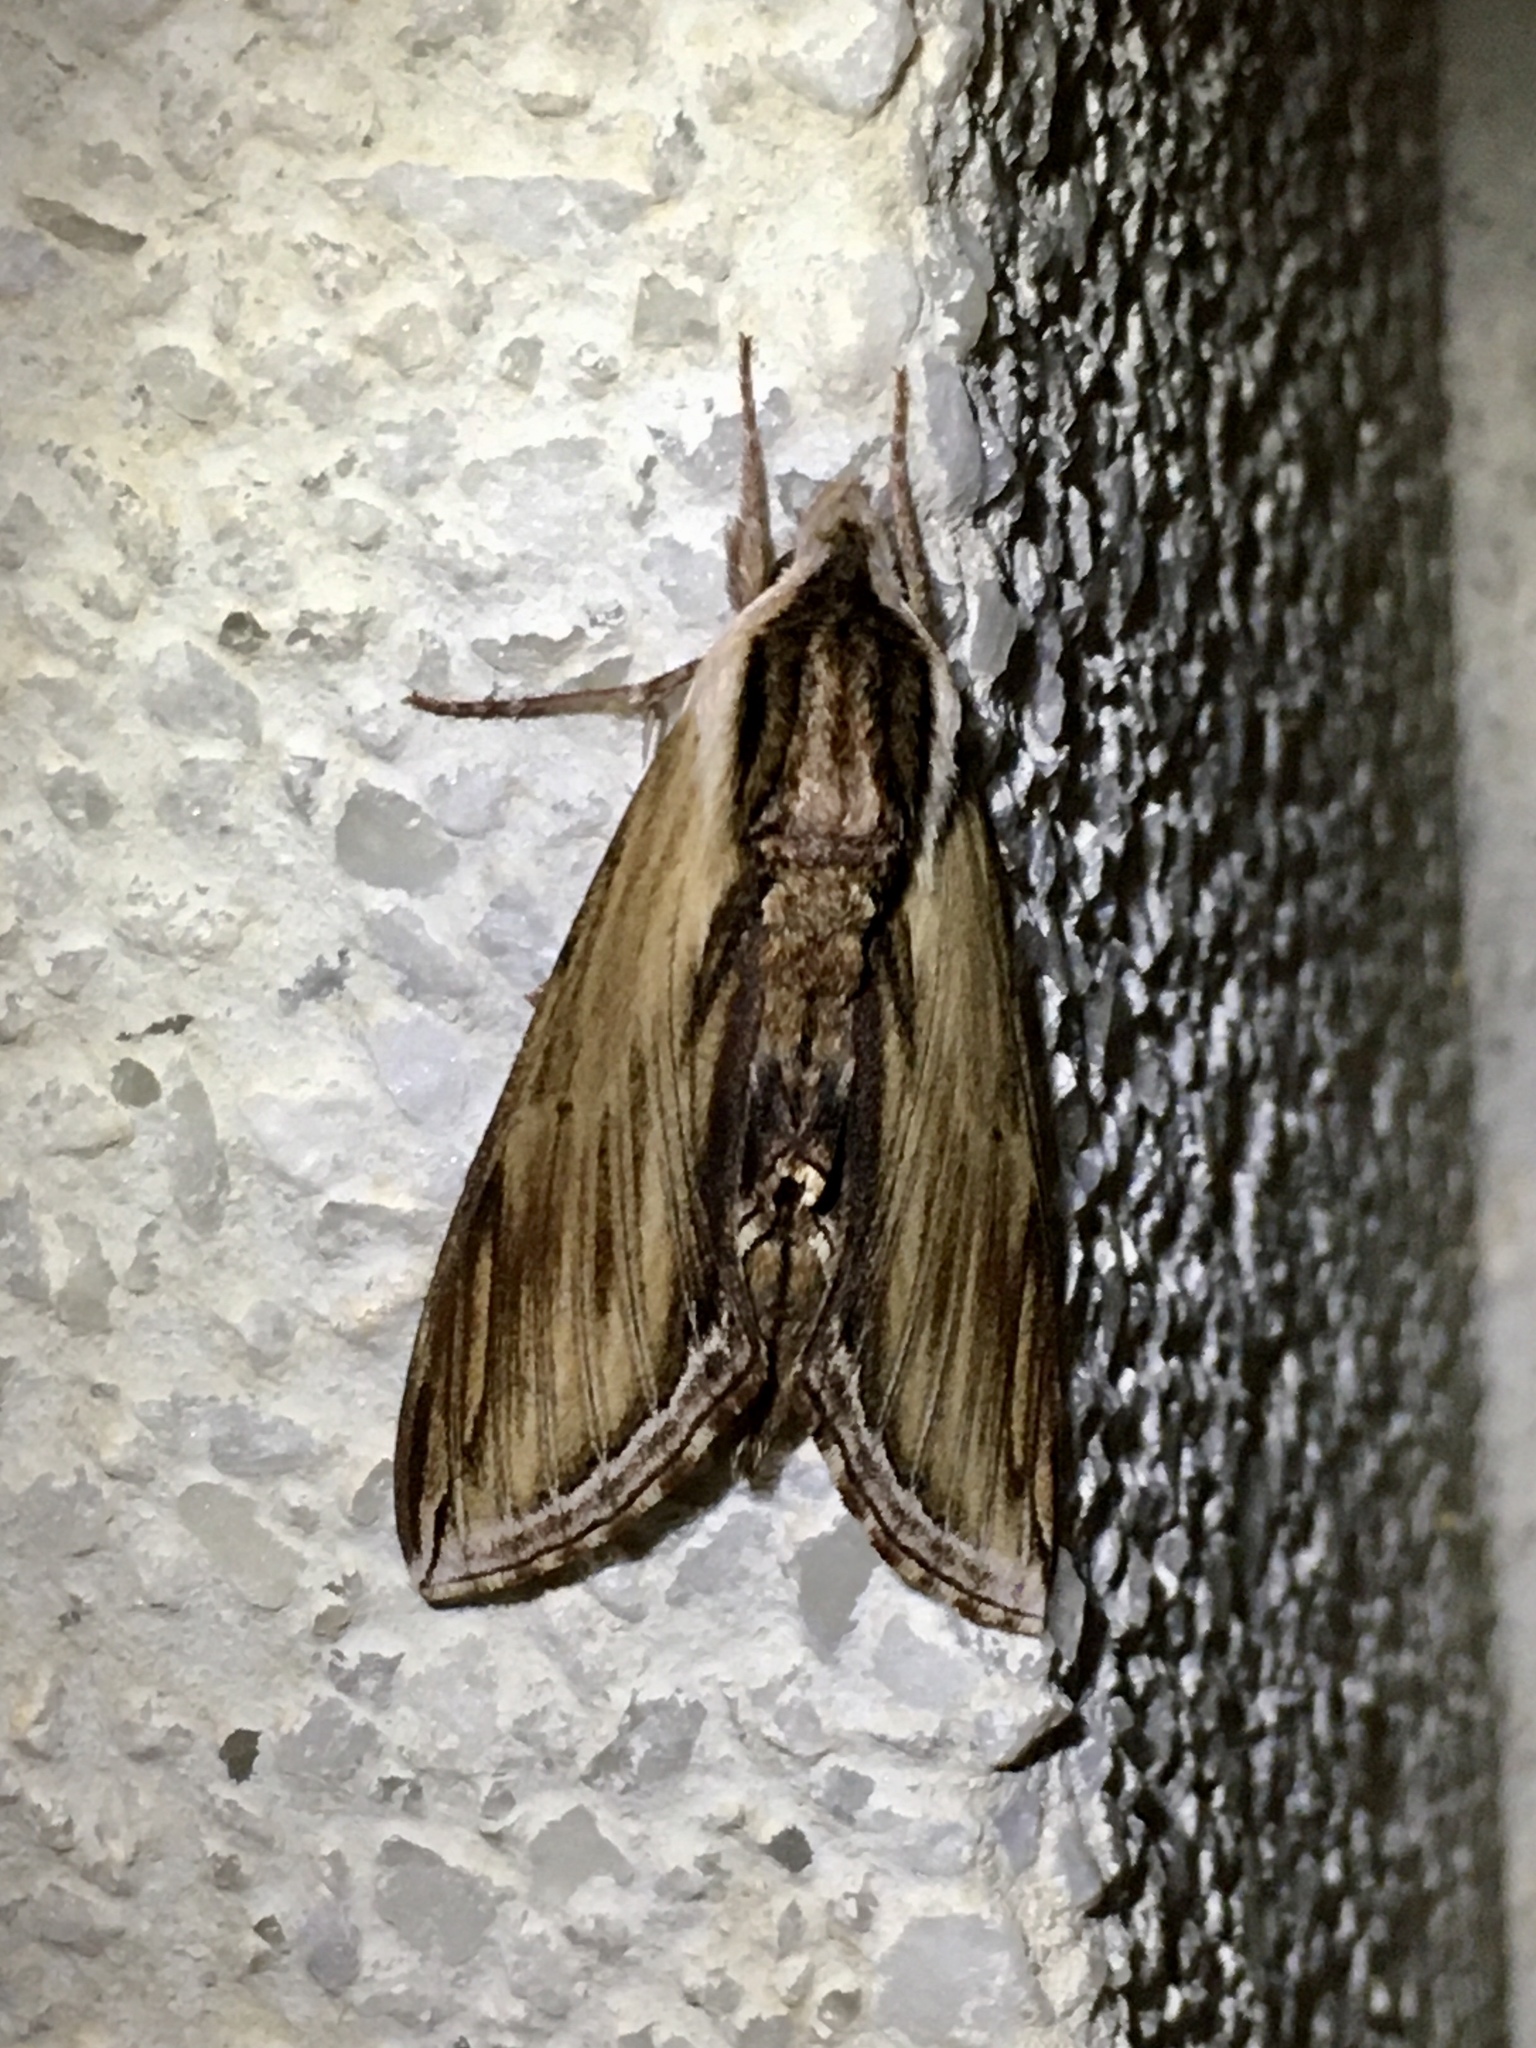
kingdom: Animalia
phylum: Arthropoda
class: Insecta
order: Lepidoptera
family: Sphingidae
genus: Sphinx
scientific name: Sphinx kalmiae
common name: Laurel sphinx
